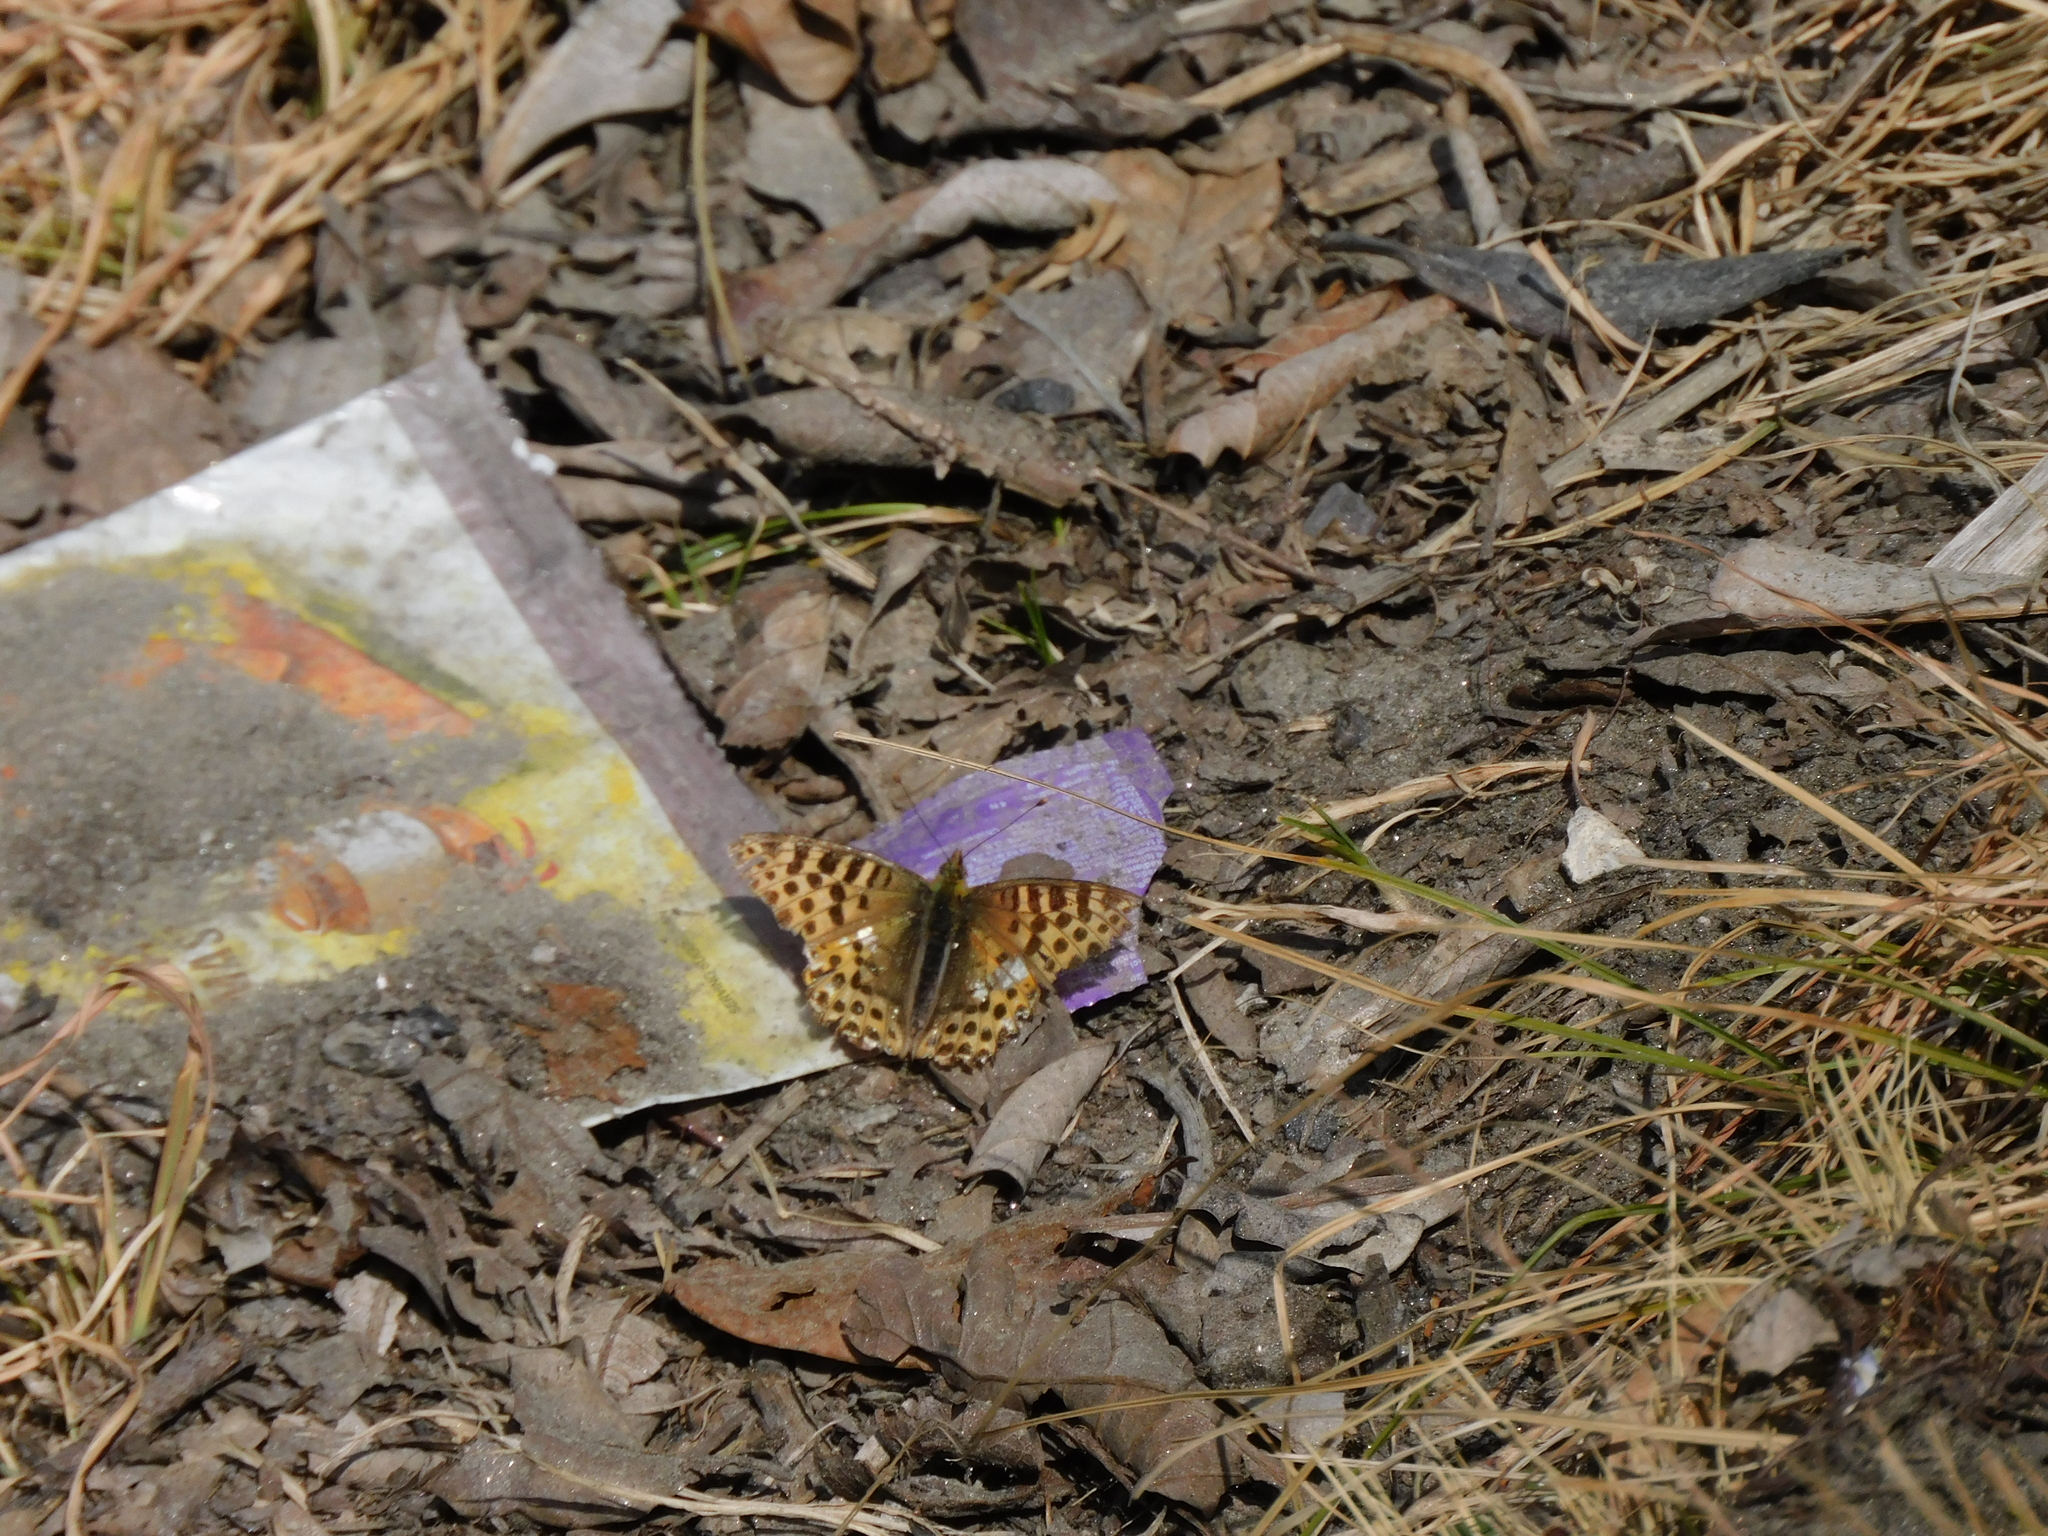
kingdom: Animalia
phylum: Arthropoda
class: Insecta
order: Lepidoptera
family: Nymphalidae
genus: Issoria
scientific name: Issoria
